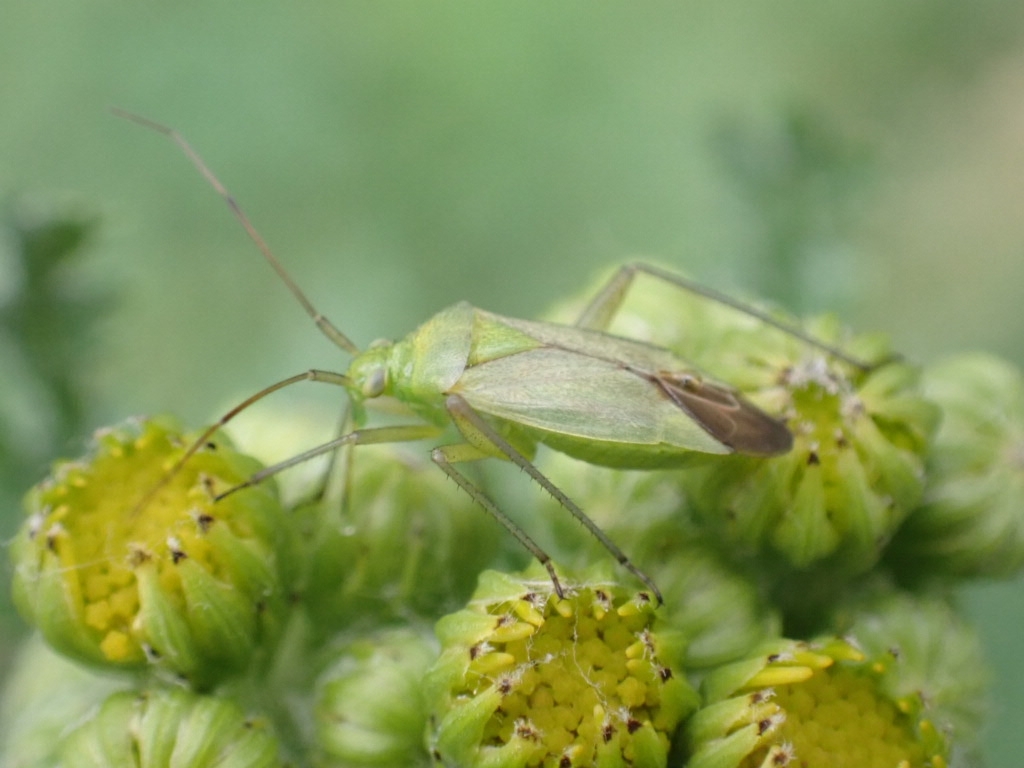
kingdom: Animalia
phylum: Arthropoda
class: Insecta
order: Hemiptera
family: Miridae
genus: Closterotomus
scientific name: Closterotomus norvegicus
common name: Plant bug
